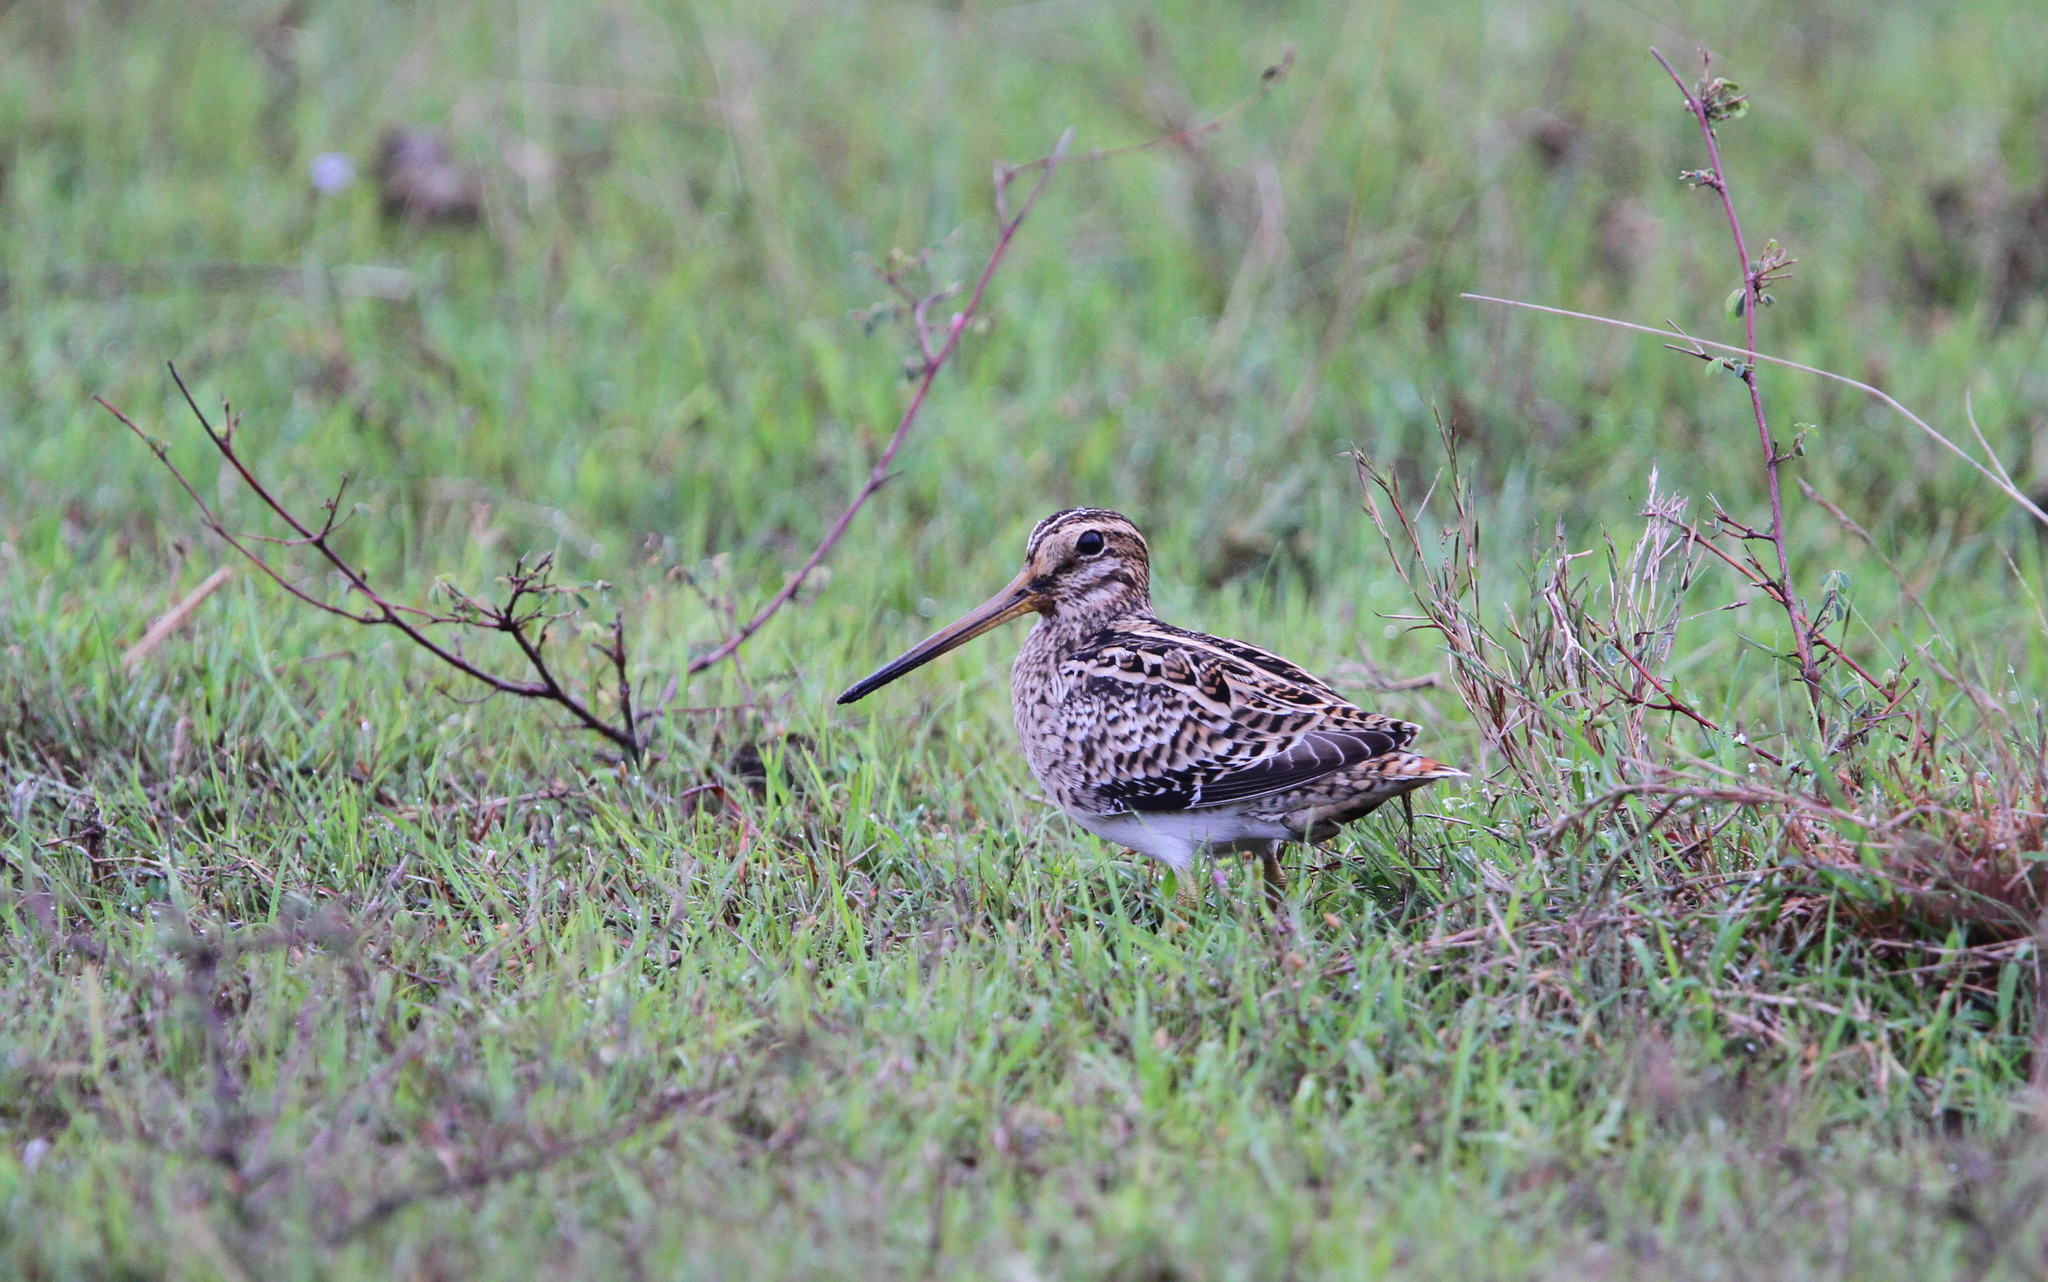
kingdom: Animalia
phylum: Chordata
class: Aves
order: Charadriiformes
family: Scolopacidae
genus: Gallinago
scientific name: Gallinago gallinago
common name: Common snipe
